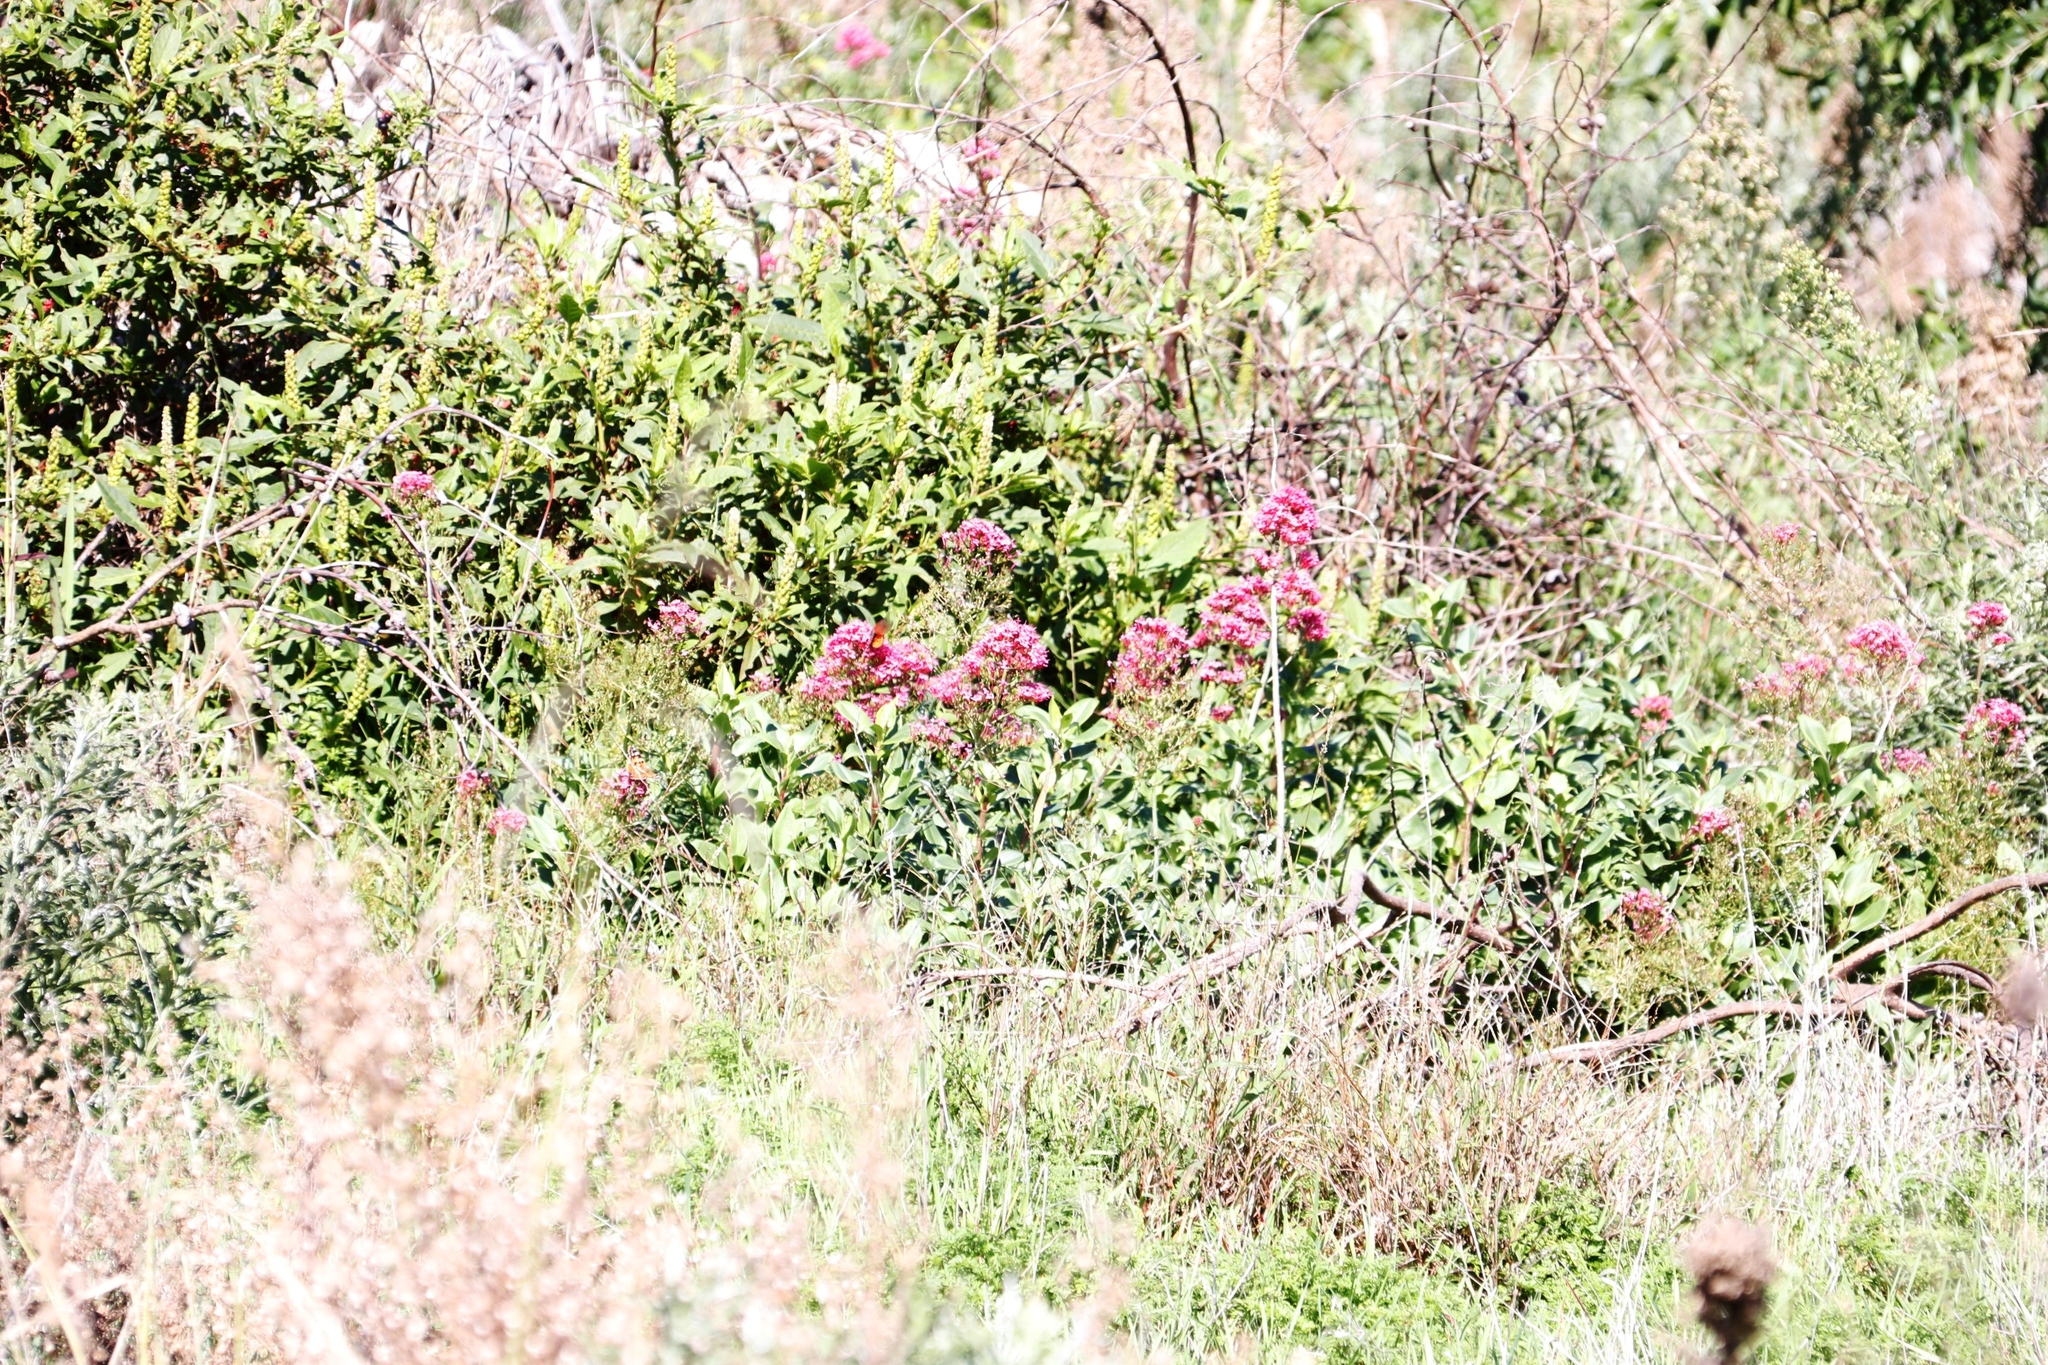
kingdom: Plantae
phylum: Tracheophyta
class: Magnoliopsida
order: Dipsacales
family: Caprifoliaceae
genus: Centranthus
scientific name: Centranthus ruber
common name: Red valerian
